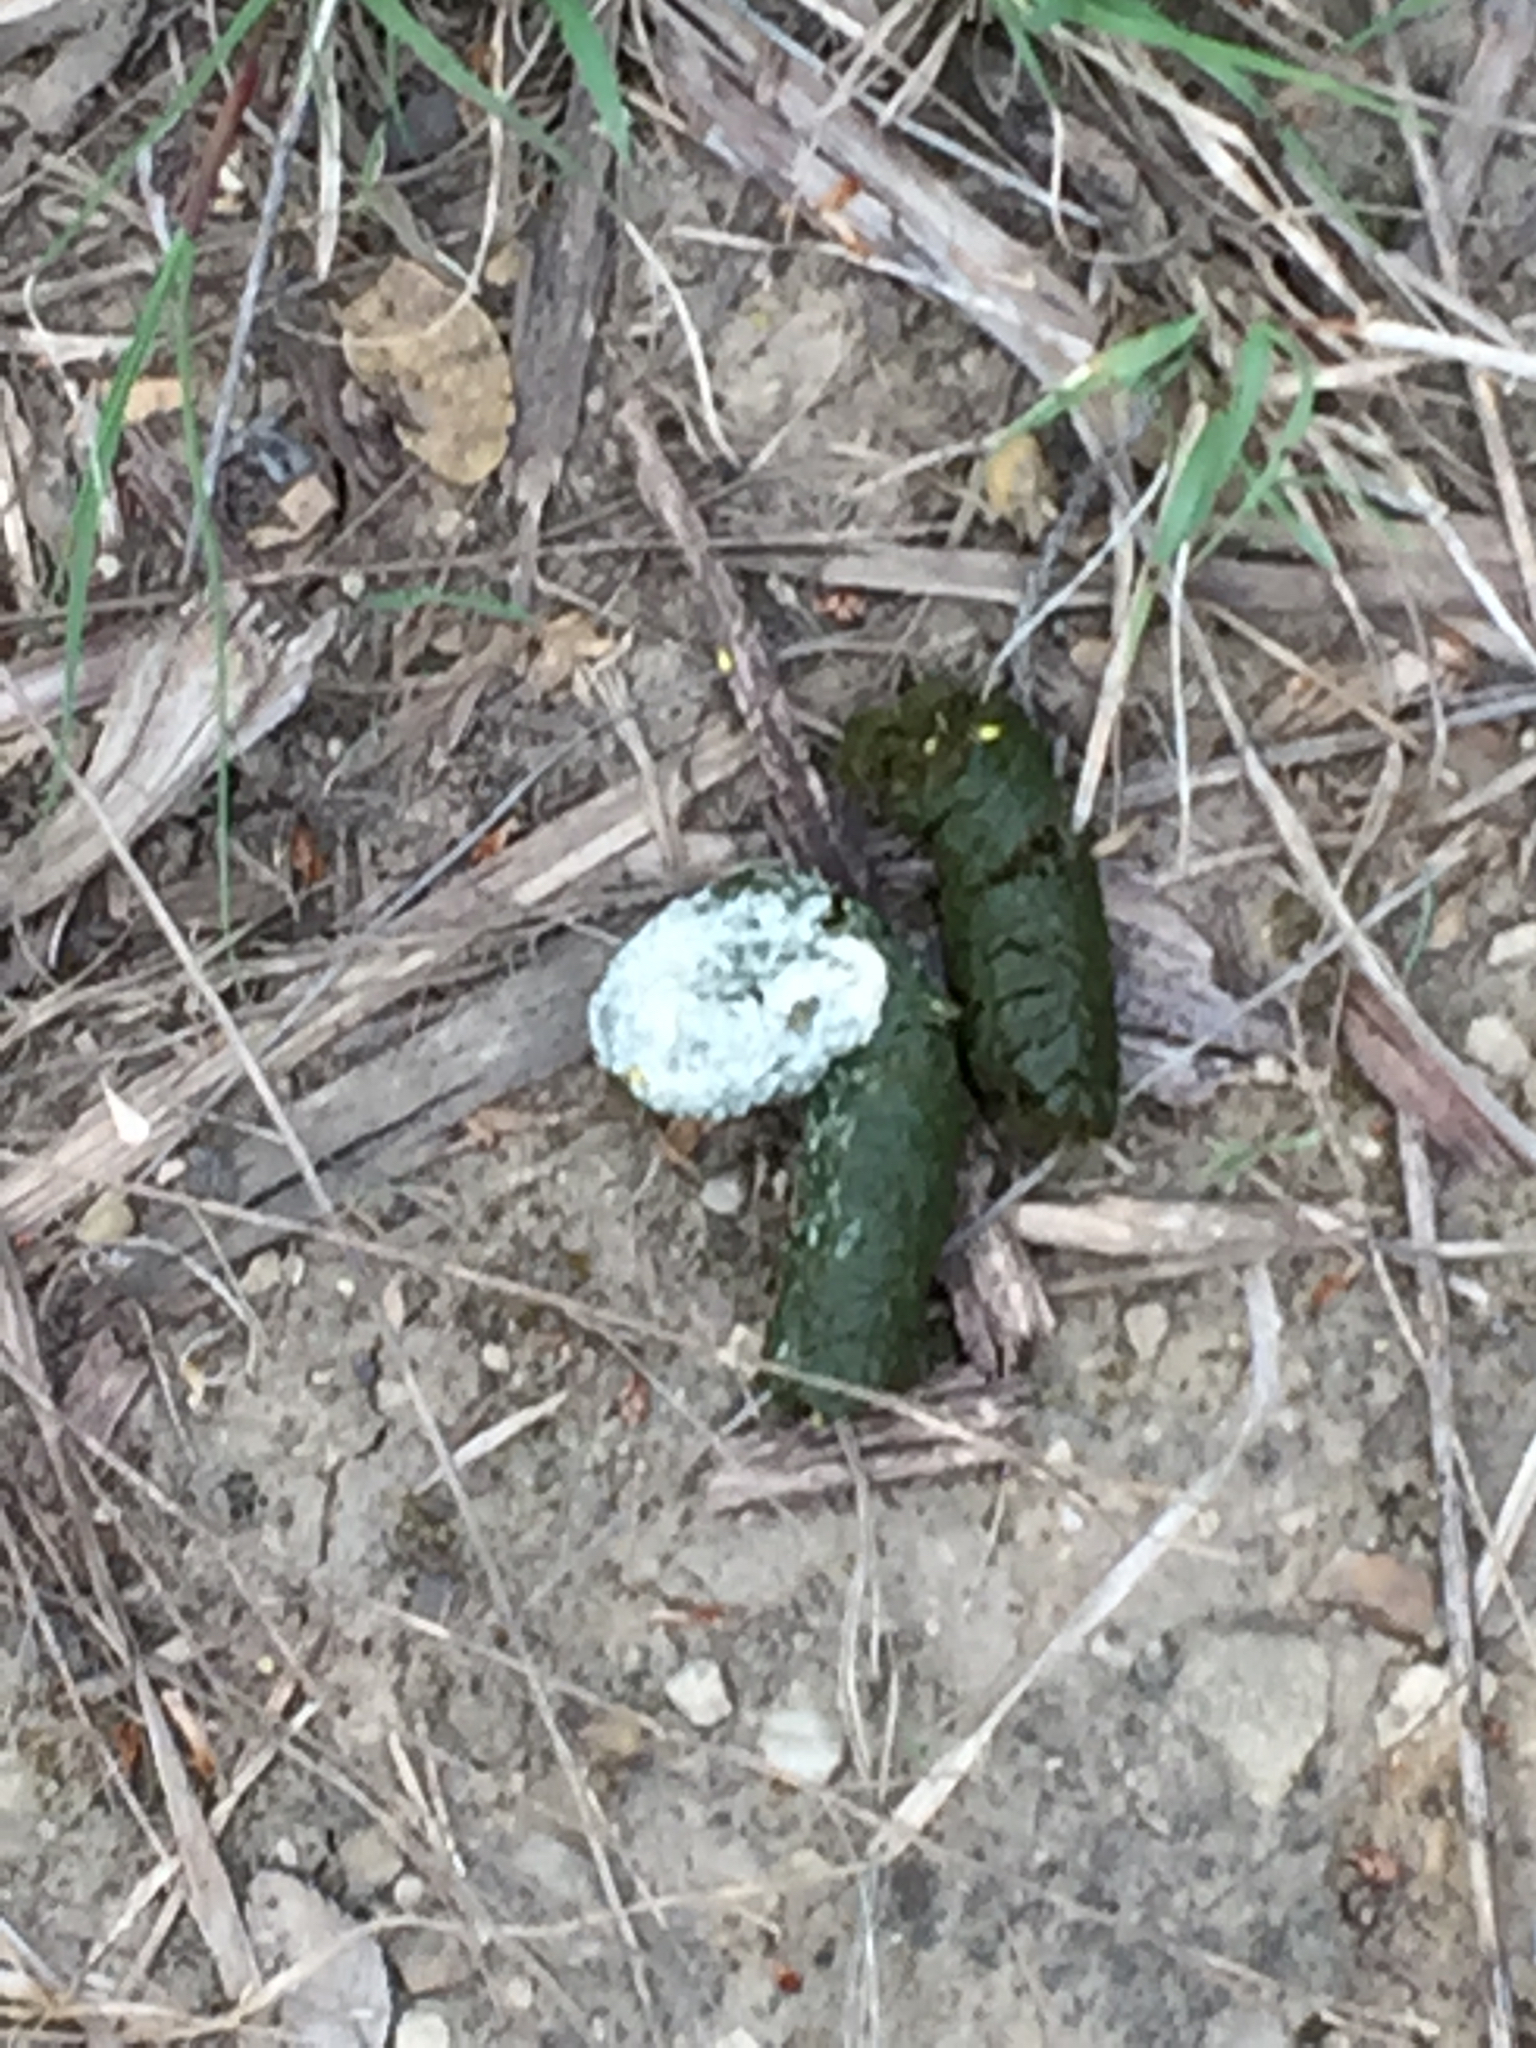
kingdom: Animalia
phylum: Chordata
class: Aves
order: Galliformes
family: Phasianidae
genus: Meleagris
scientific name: Meleagris gallopavo
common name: Wild turkey
